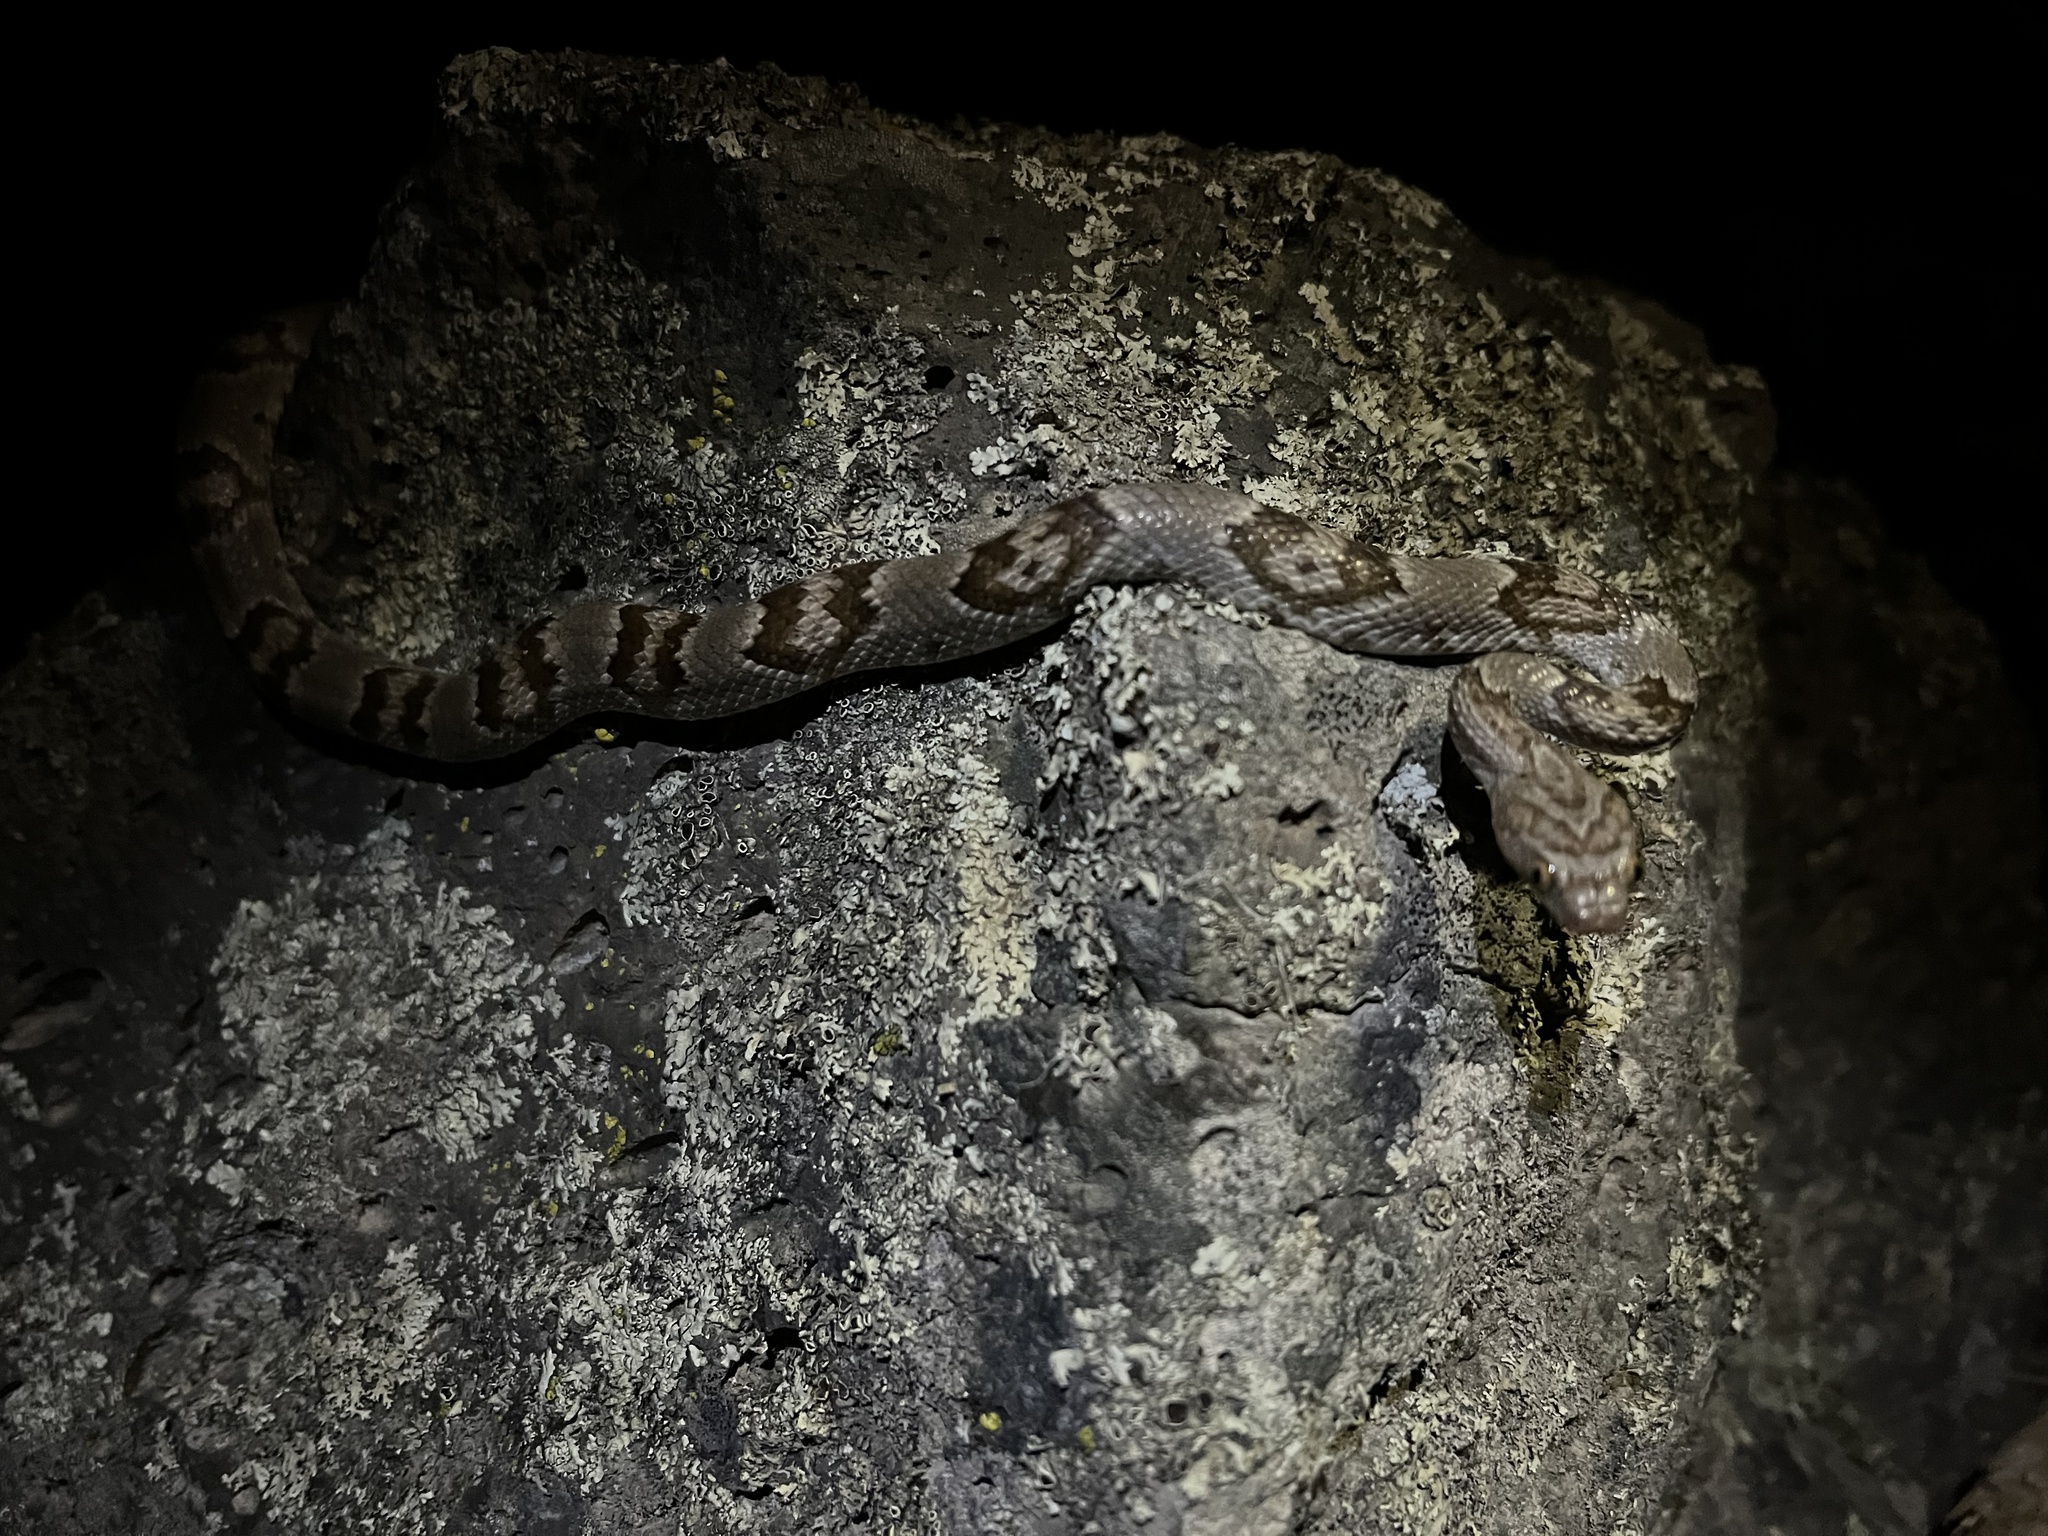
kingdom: Animalia
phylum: Chordata
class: Squamata
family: Colubridae
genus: Trimorphodon
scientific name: Trimorphodon lambda
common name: Sonoran lyre snake
